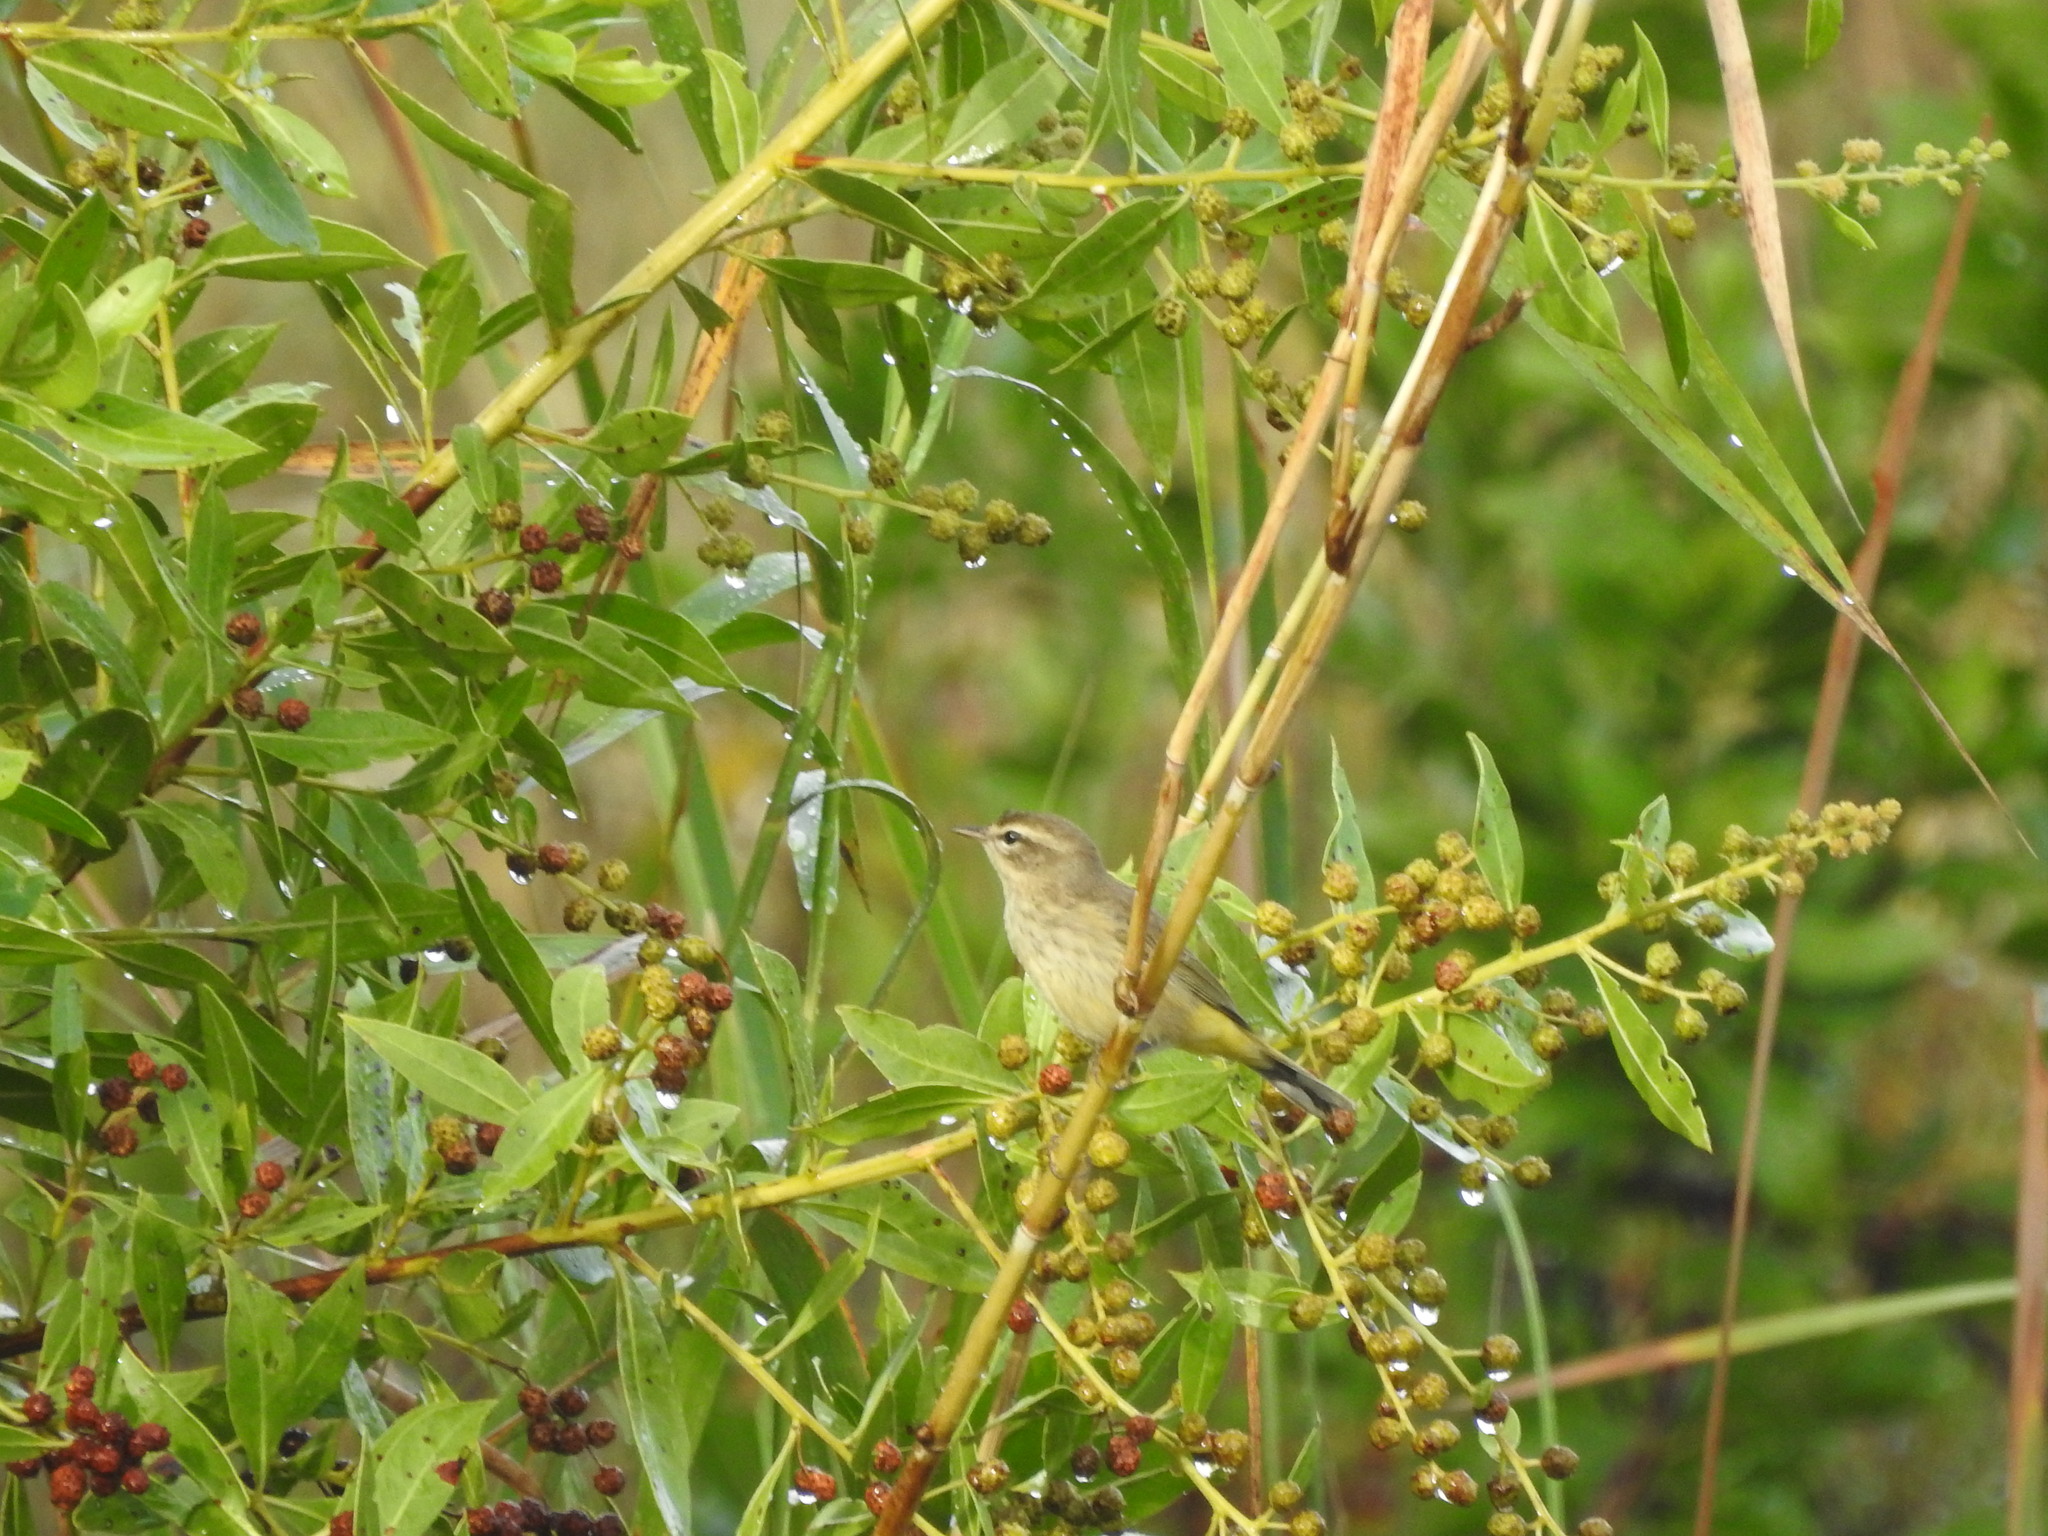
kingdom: Animalia
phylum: Chordata
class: Aves
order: Passeriformes
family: Parulidae
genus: Setophaga
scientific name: Setophaga palmarum
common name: Palm warbler
